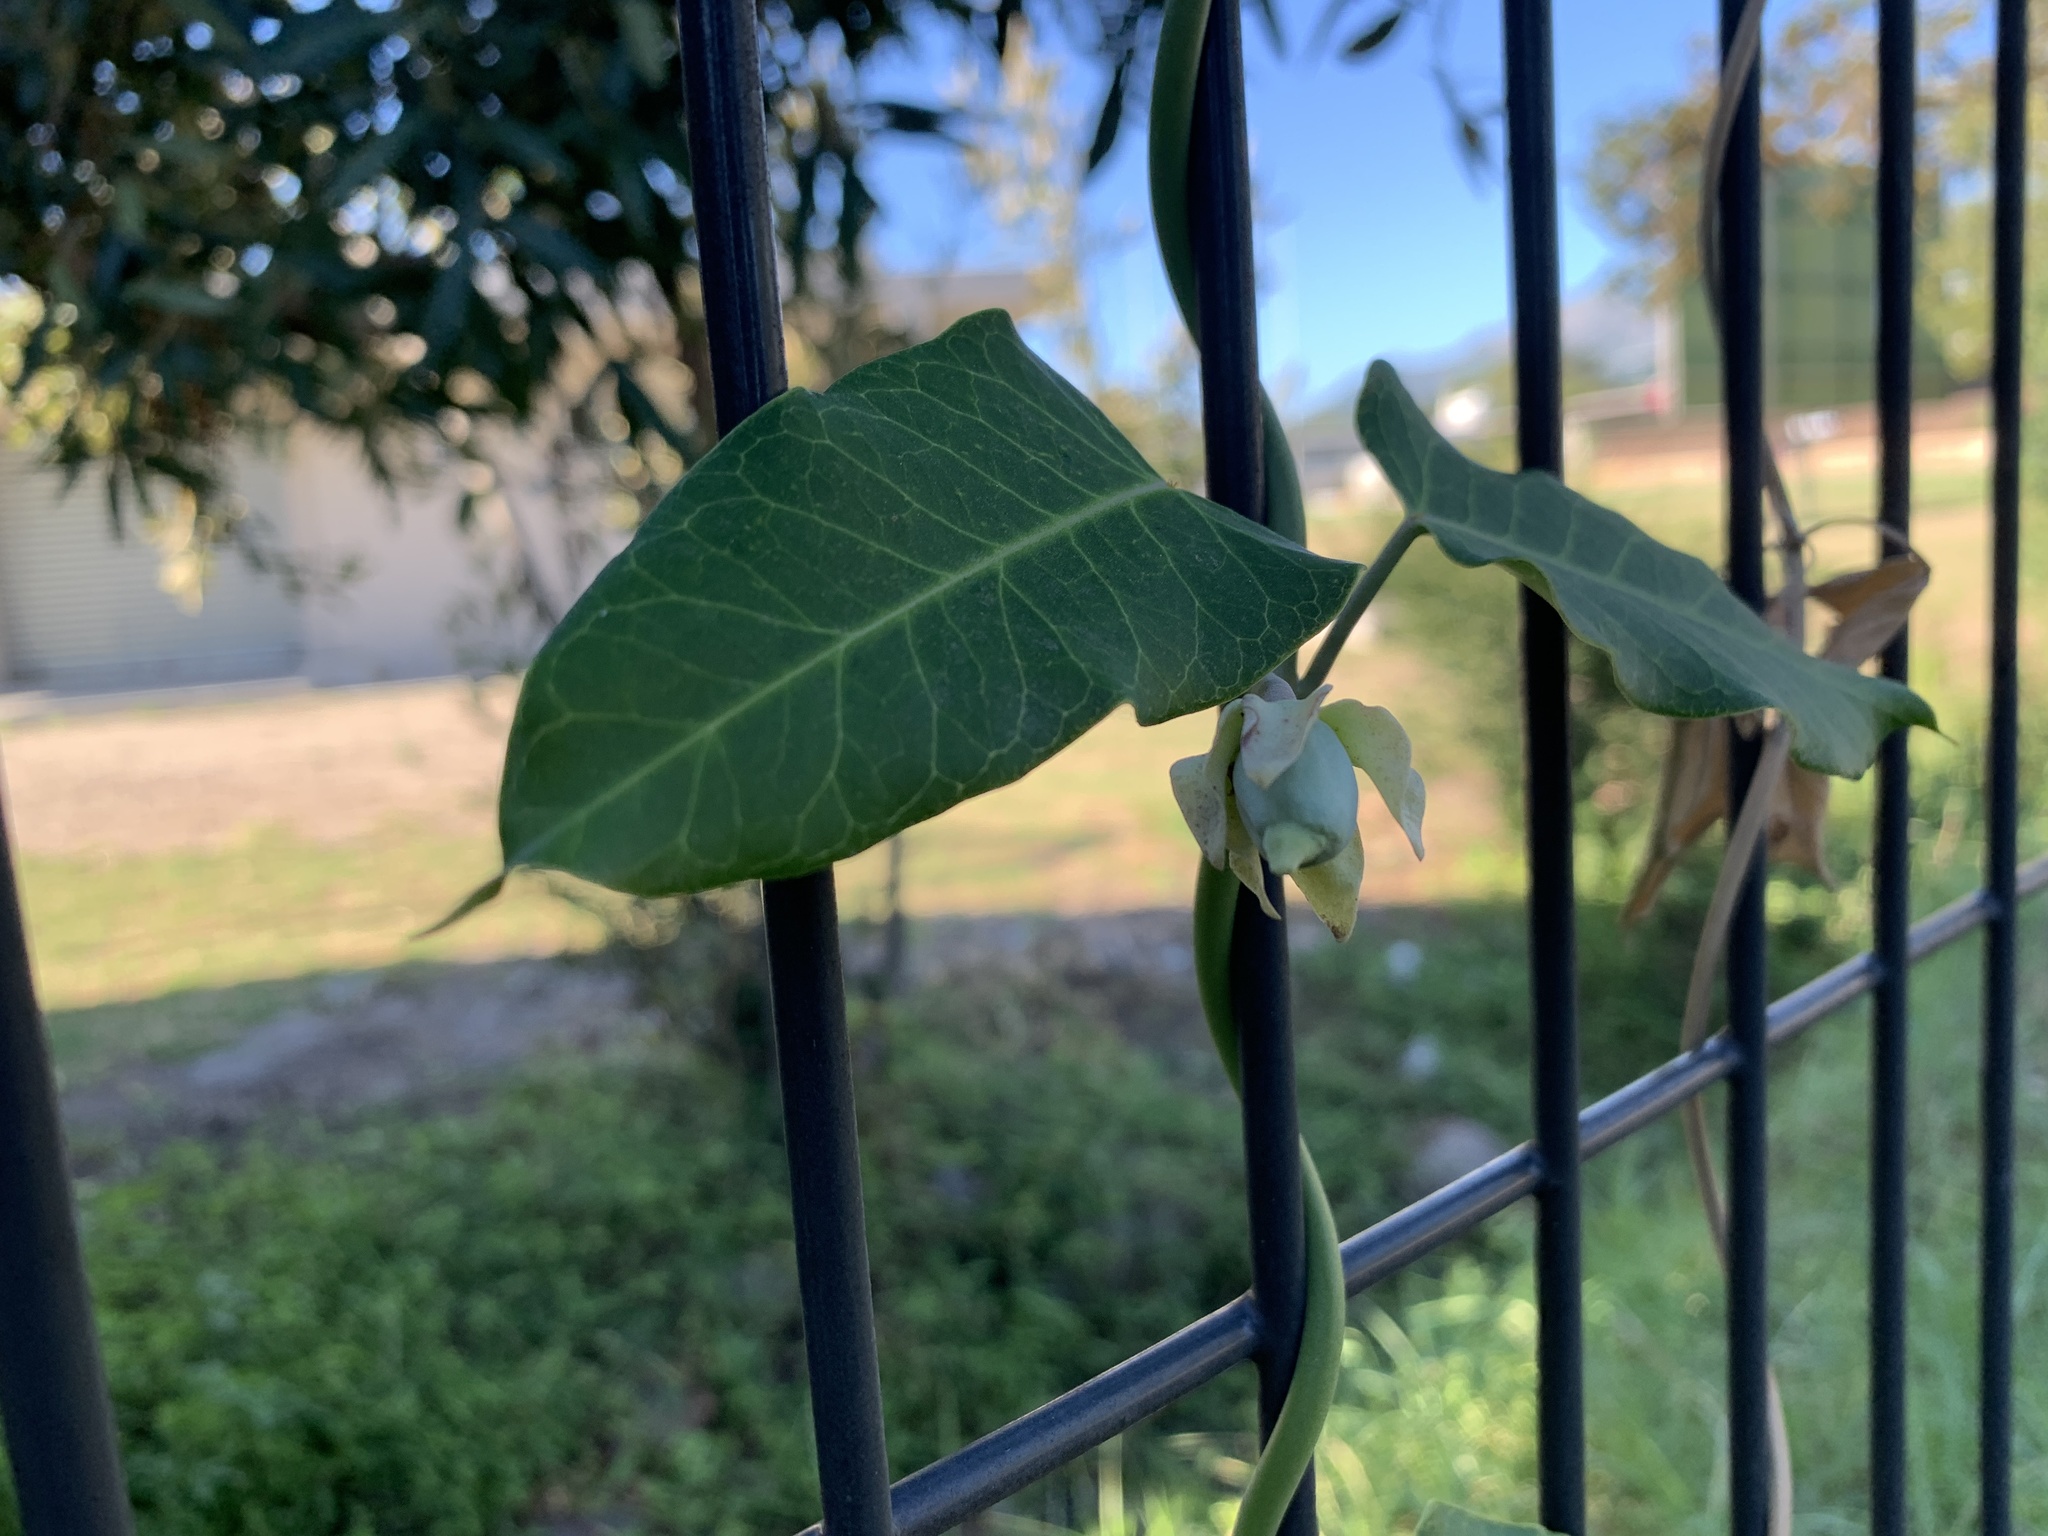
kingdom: Plantae
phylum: Tracheophyta
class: Magnoliopsida
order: Gentianales
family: Apocynaceae
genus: Araujia
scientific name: Araujia sericifera
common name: White bladderflower
